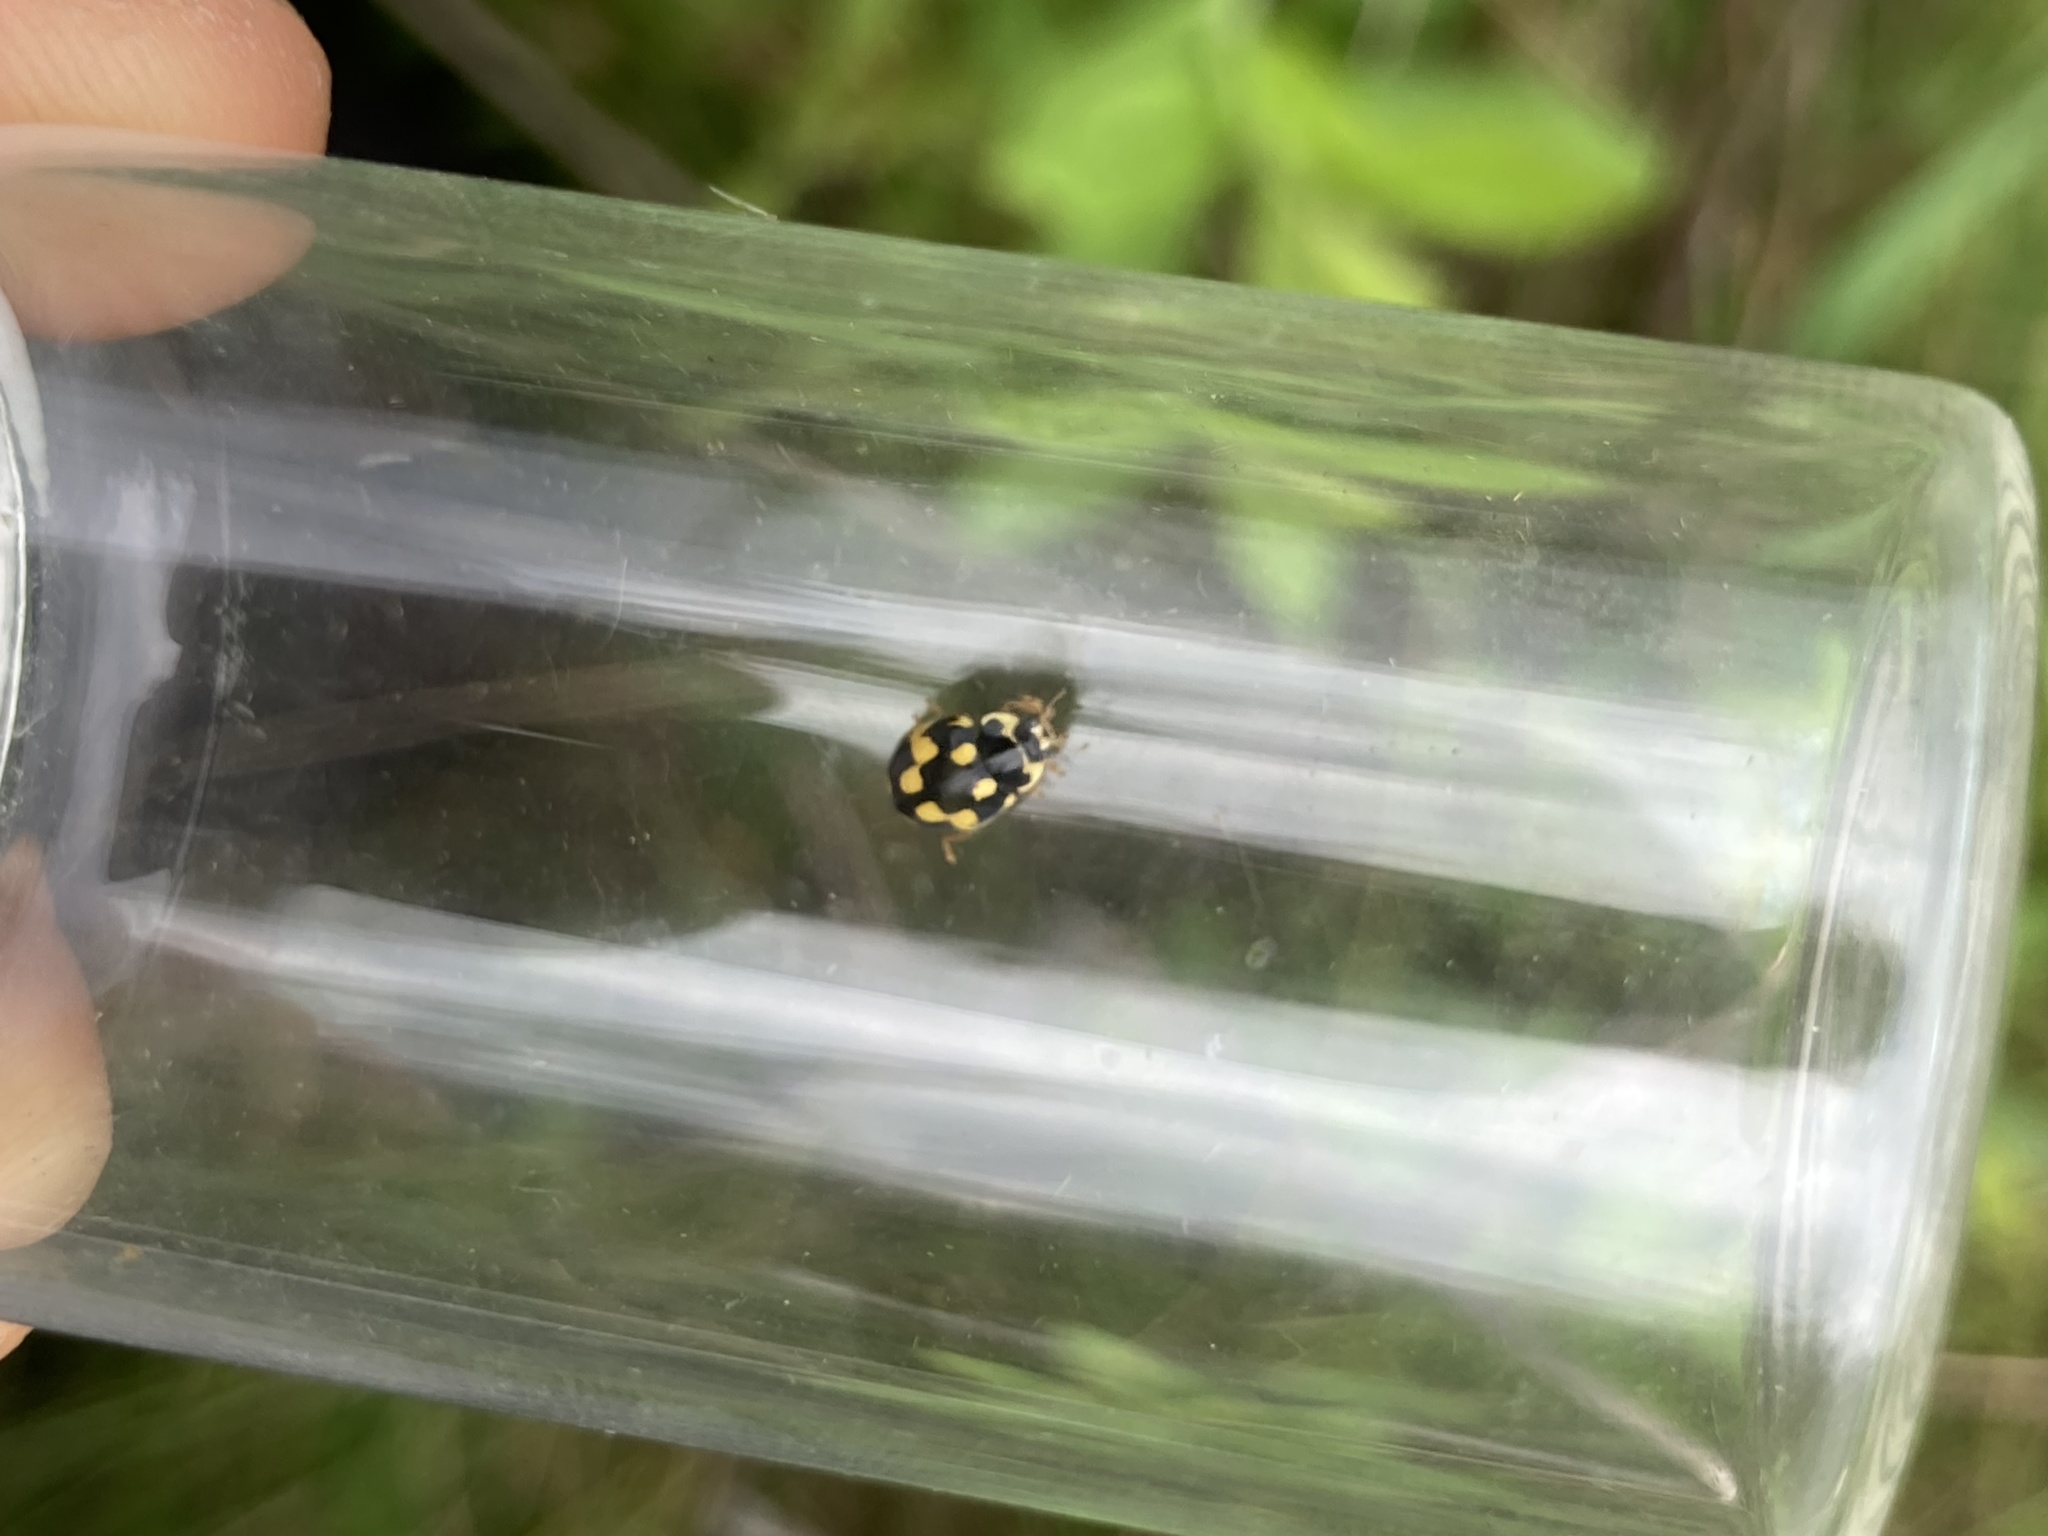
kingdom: Animalia
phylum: Arthropoda
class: Insecta
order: Coleoptera
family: Coccinellidae
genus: Propylaea
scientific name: Propylaea quatuordecimpunctata
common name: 14-spotted ladybird beetle
